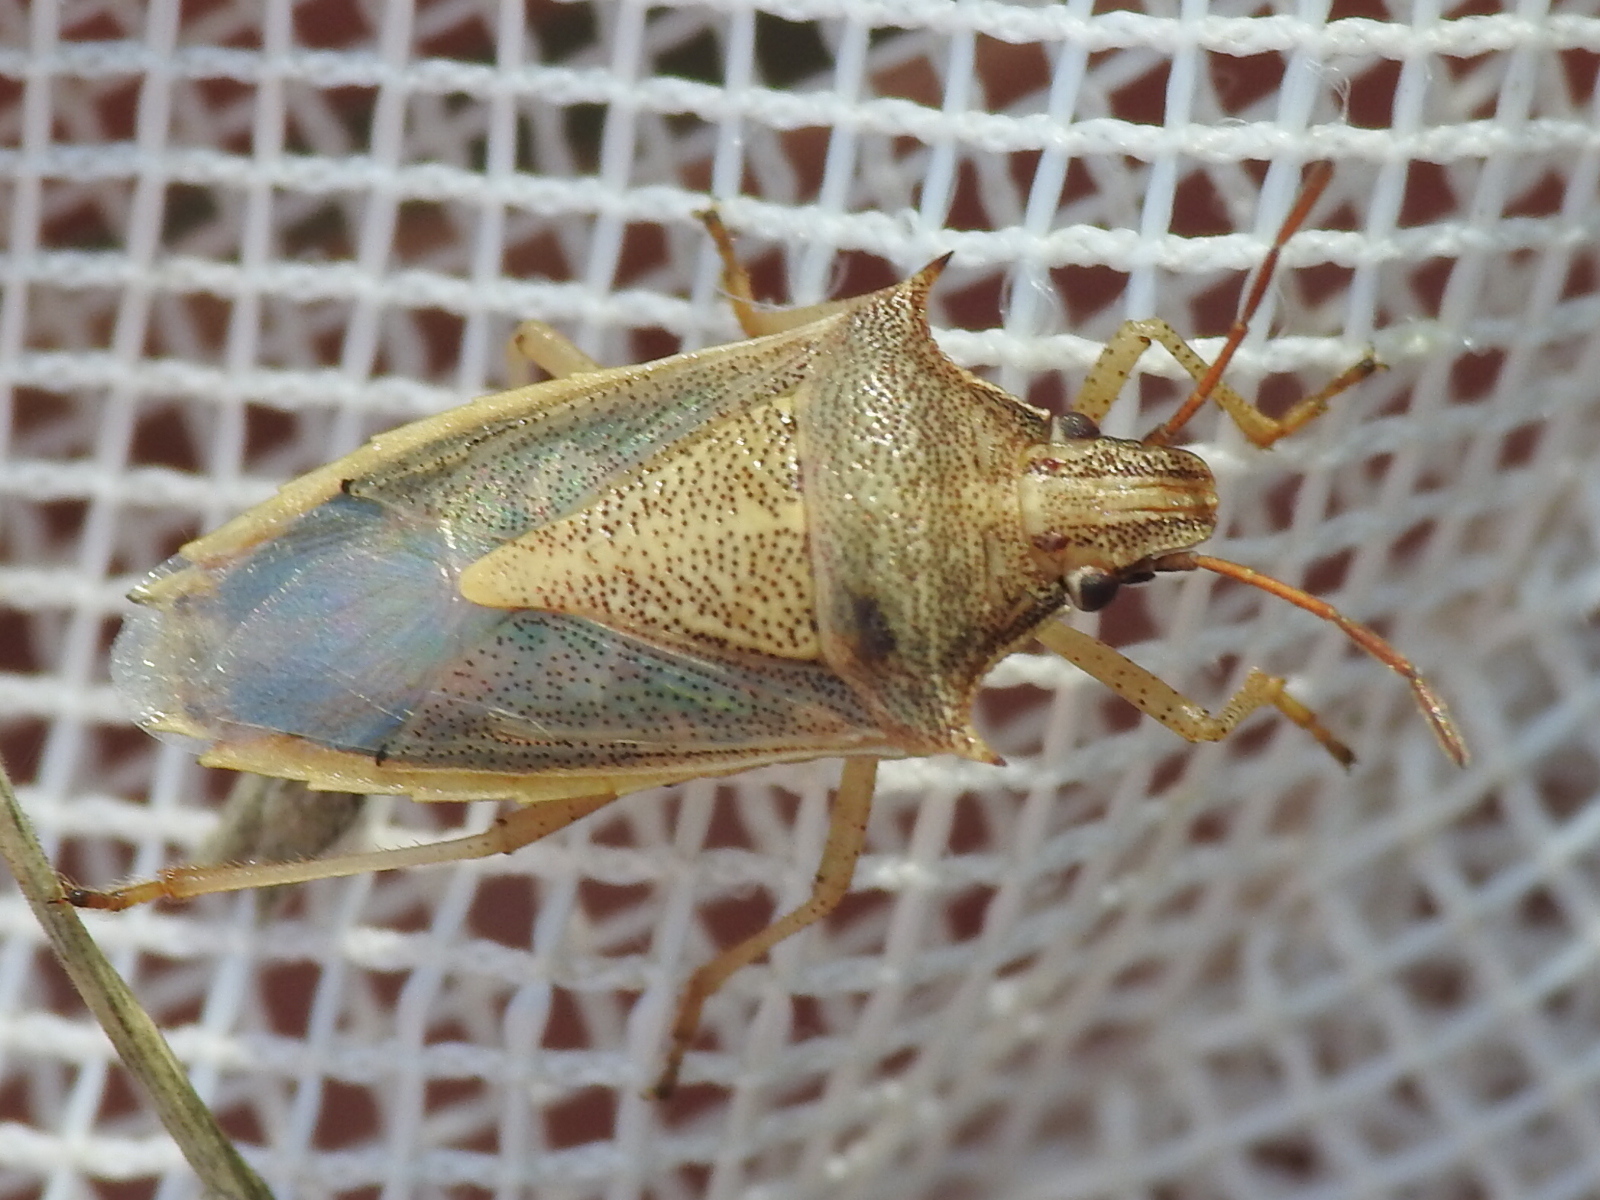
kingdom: Animalia
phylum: Arthropoda
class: Insecta
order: Hemiptera
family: Pentatomidae
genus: Oebalus
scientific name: Oebalus pugnax
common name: Rice stink bug
